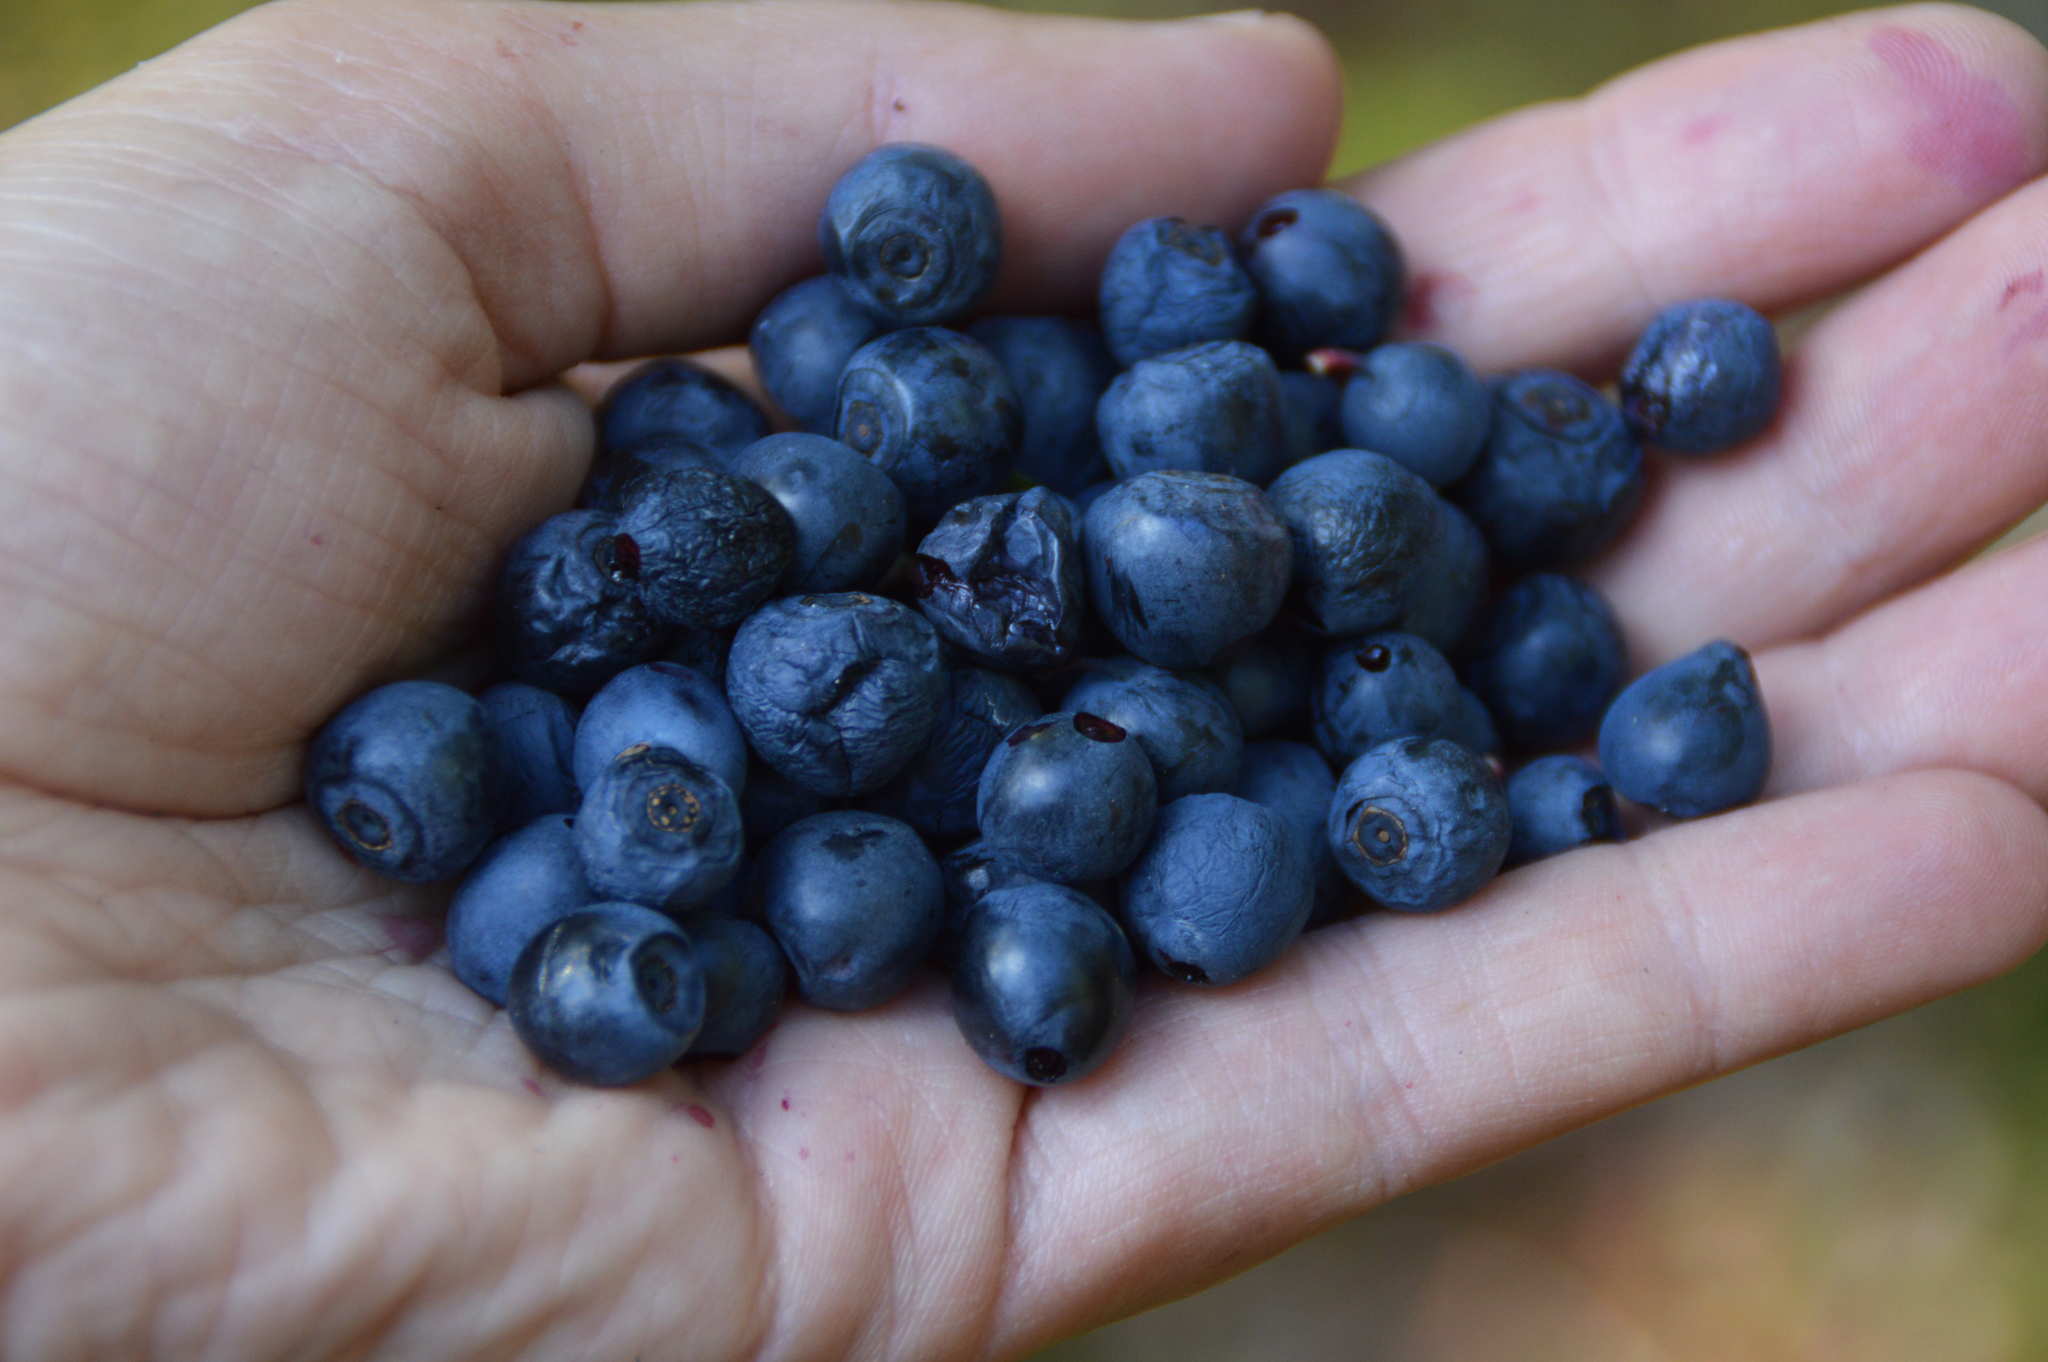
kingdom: Plantae
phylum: Tracheophyta
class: Magnoliopsida
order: Ericales
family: Ericaceae
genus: Vaccinium
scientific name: Vaccinium myrtillus
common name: Bilberry
